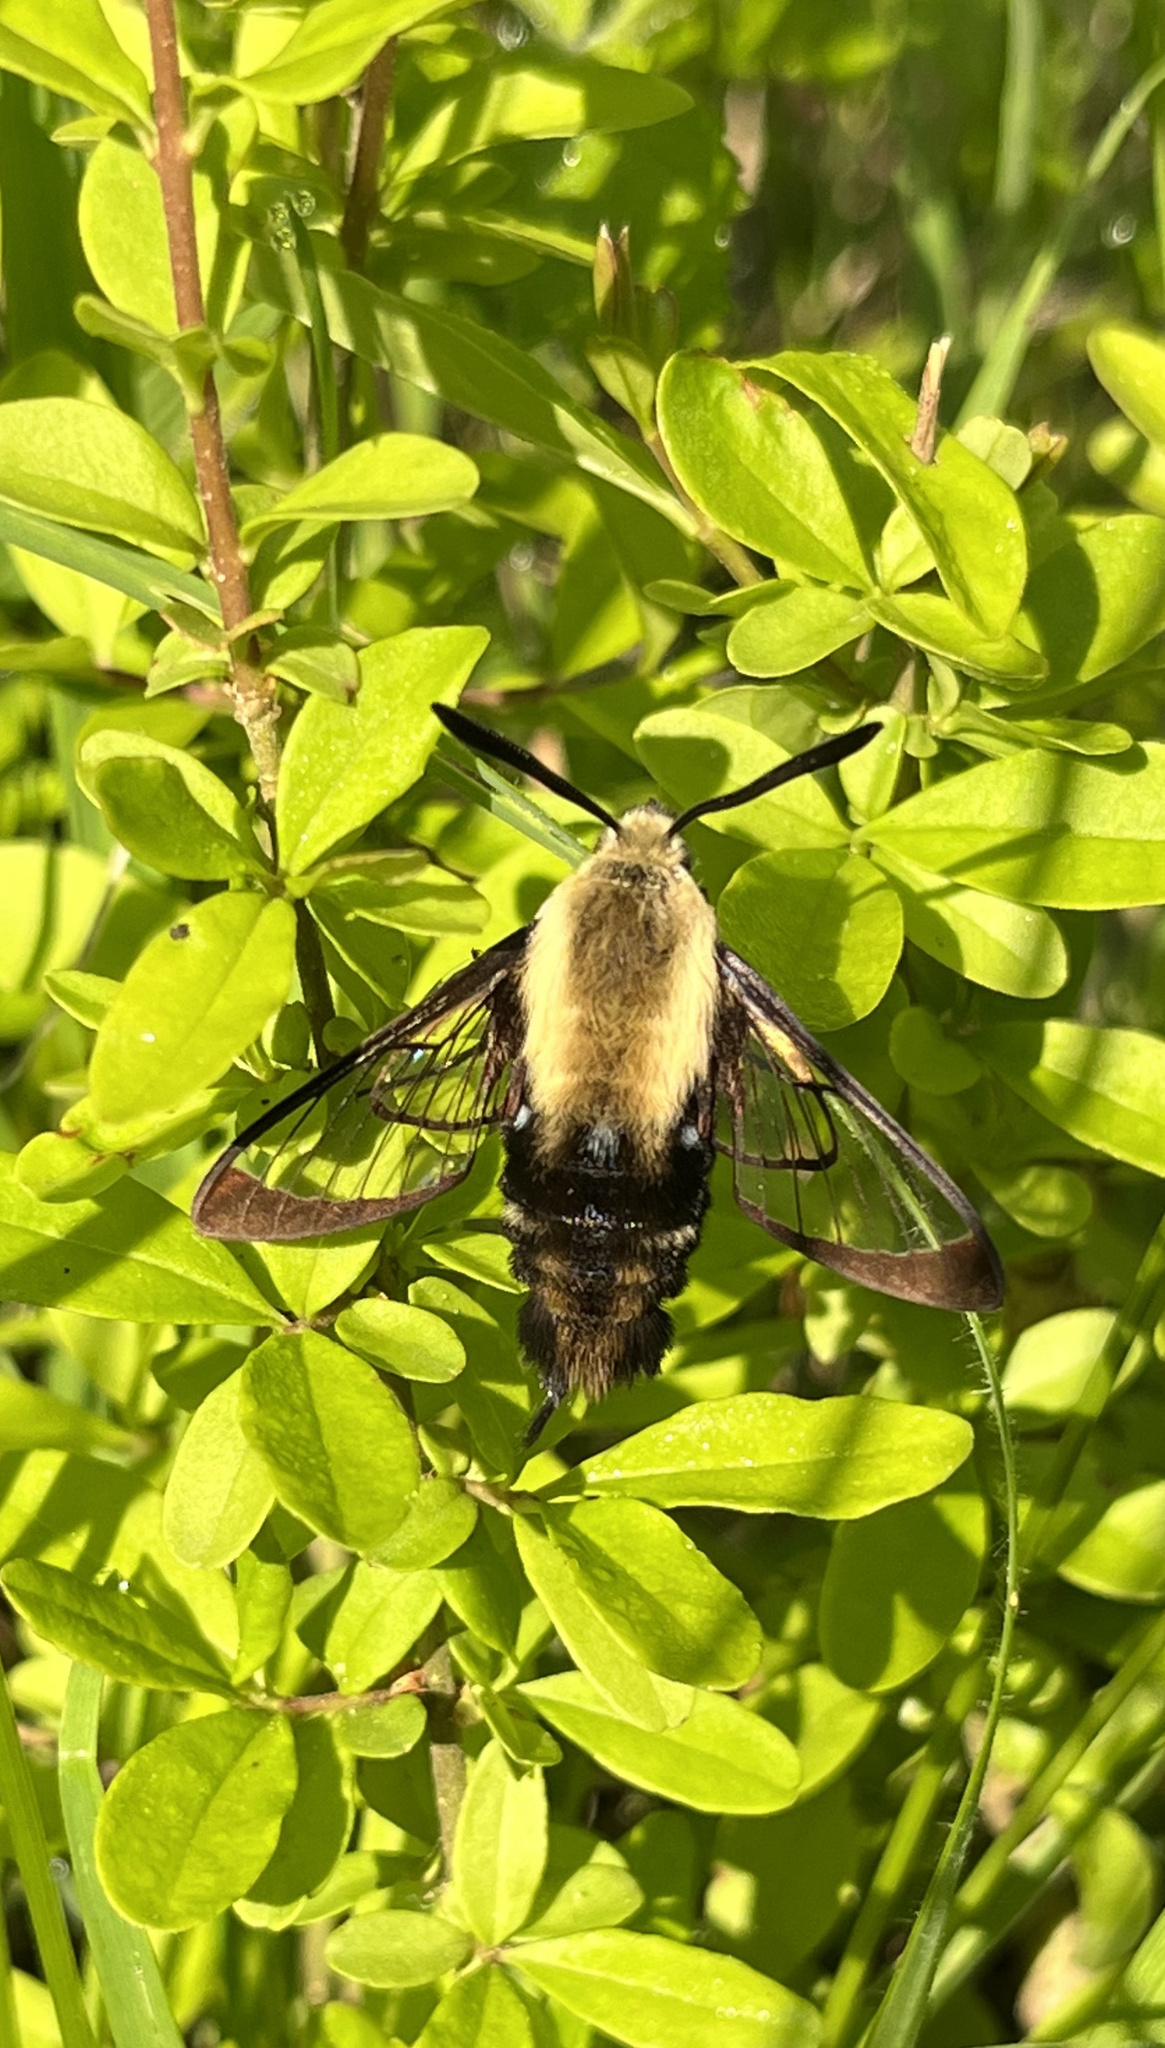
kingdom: Animalia
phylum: Arthropoda
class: Insecta
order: Lepidoptera
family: Sphingidae
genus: Hemaris
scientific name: Hemaris diffinis
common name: Bumblebee moth
